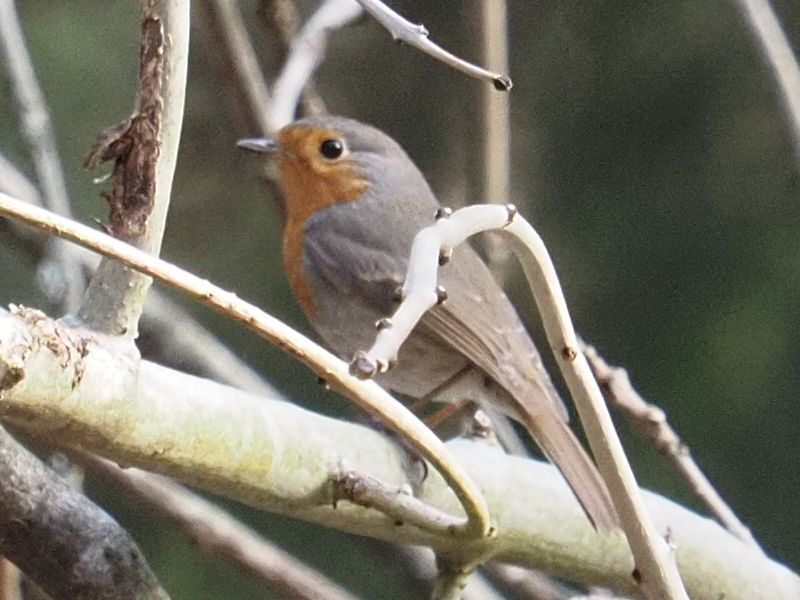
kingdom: Animalia
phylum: Chordata
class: Aves
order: Passeriformes
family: Muscicapidae
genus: Erithacus
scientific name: Erithacus rubecula
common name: European robin
